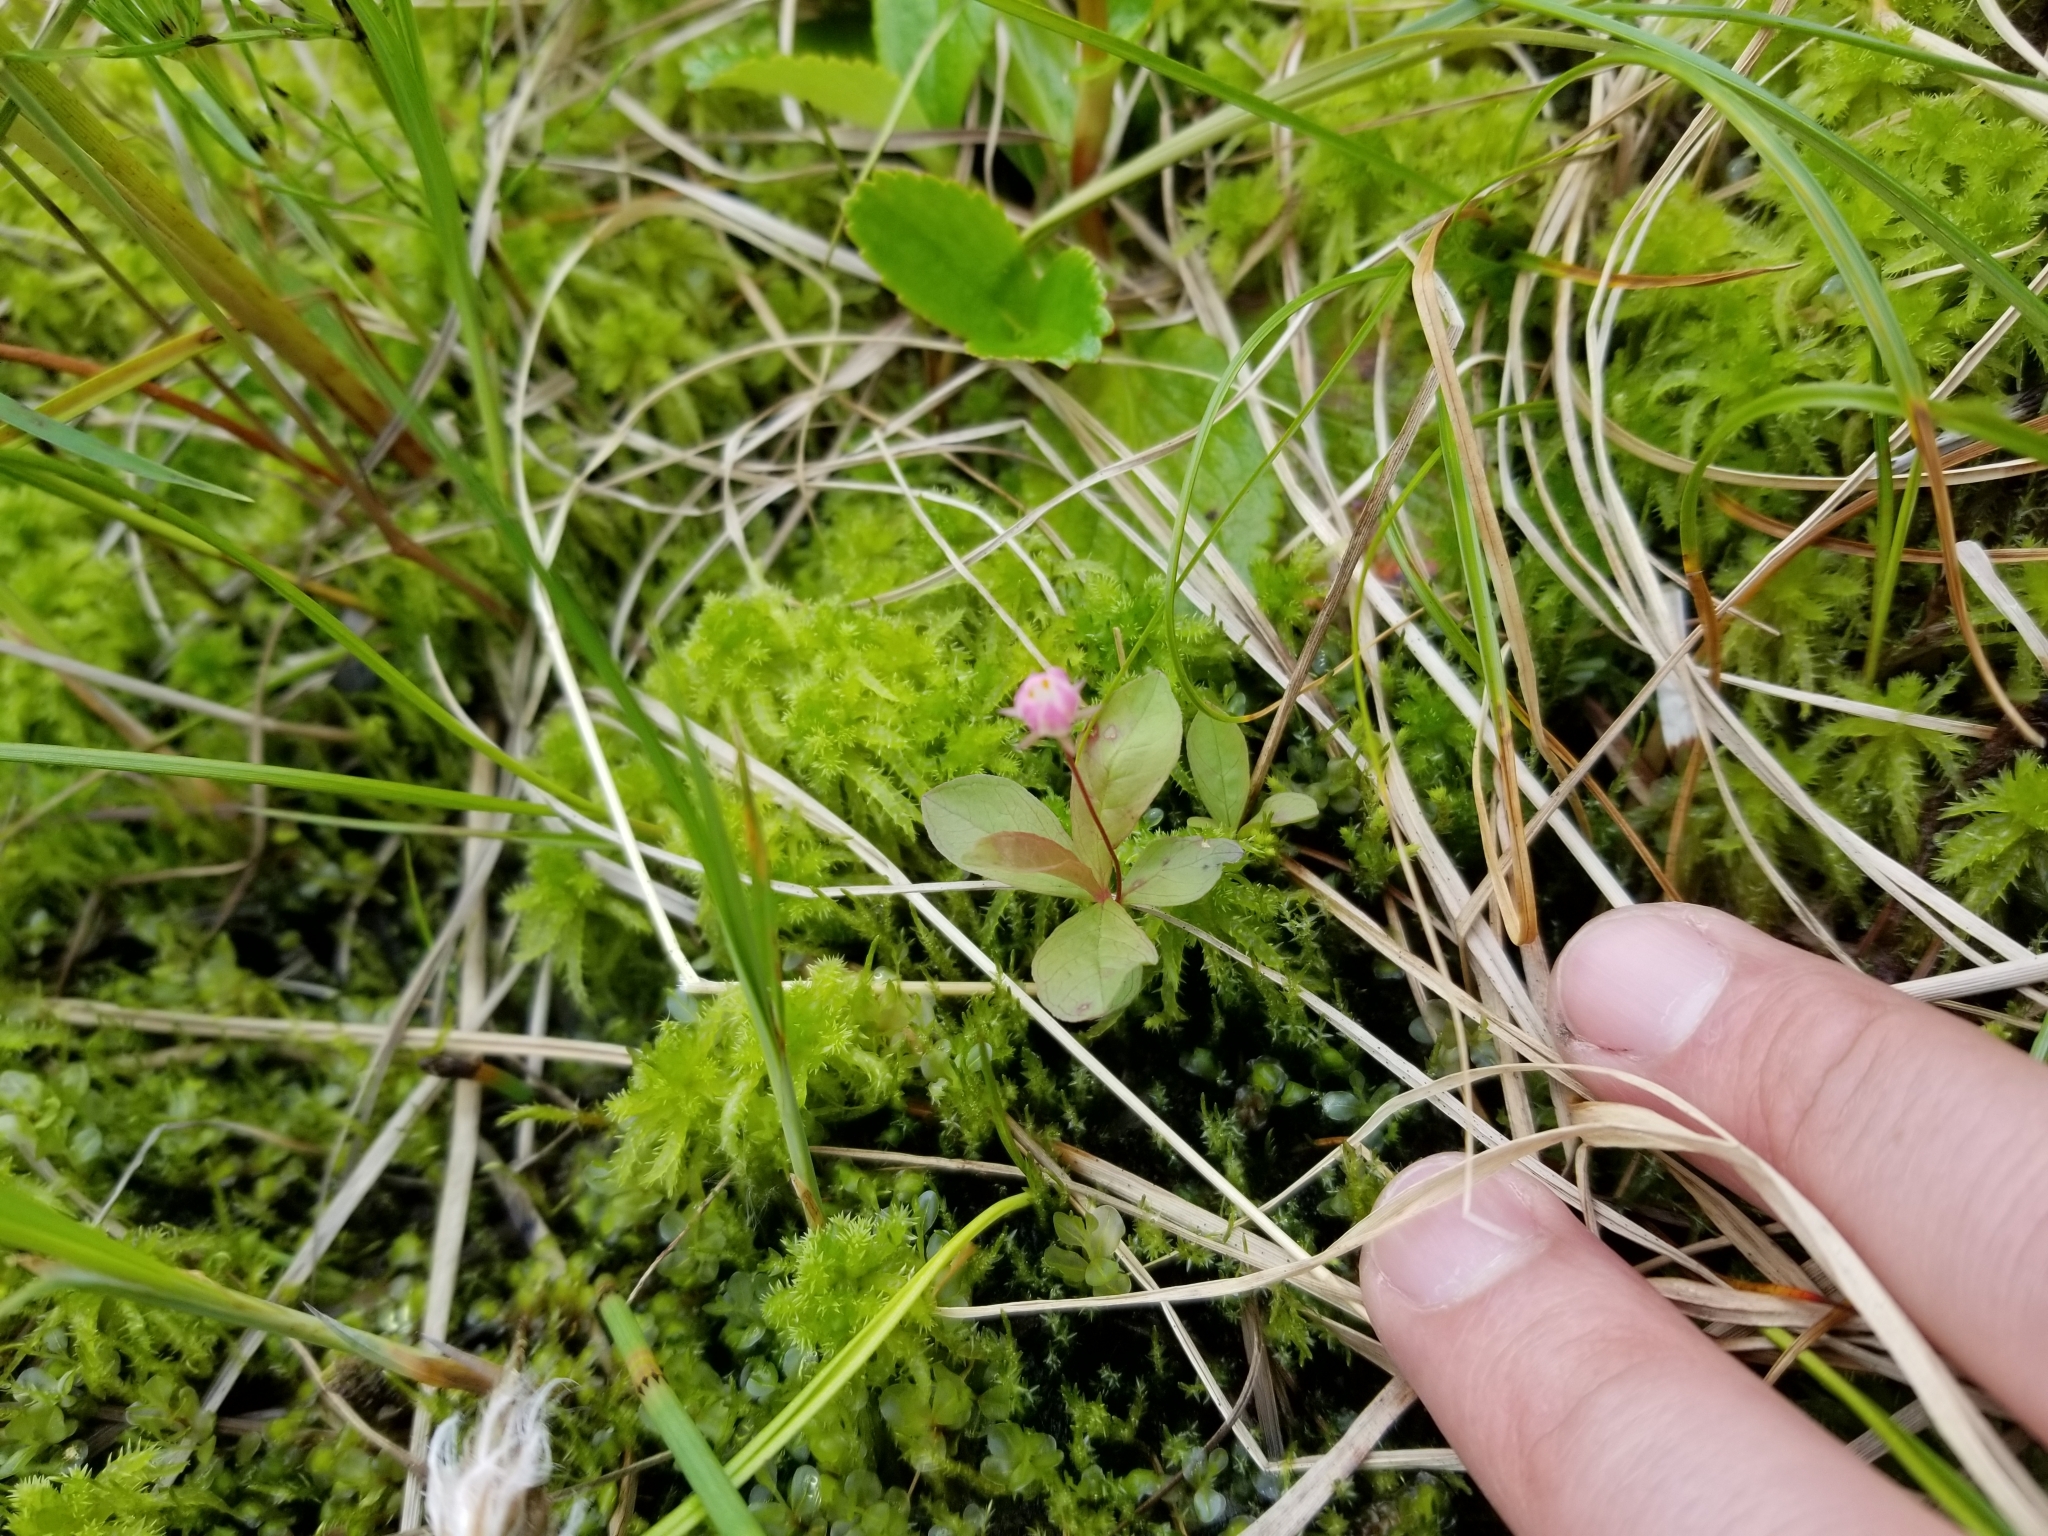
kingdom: Plantae
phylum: Tracheophyta
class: Magnoliopsida
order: Ericales
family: Primulaceae
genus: Lysimachia
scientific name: Lysimachia europaea
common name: Arctic starflower
